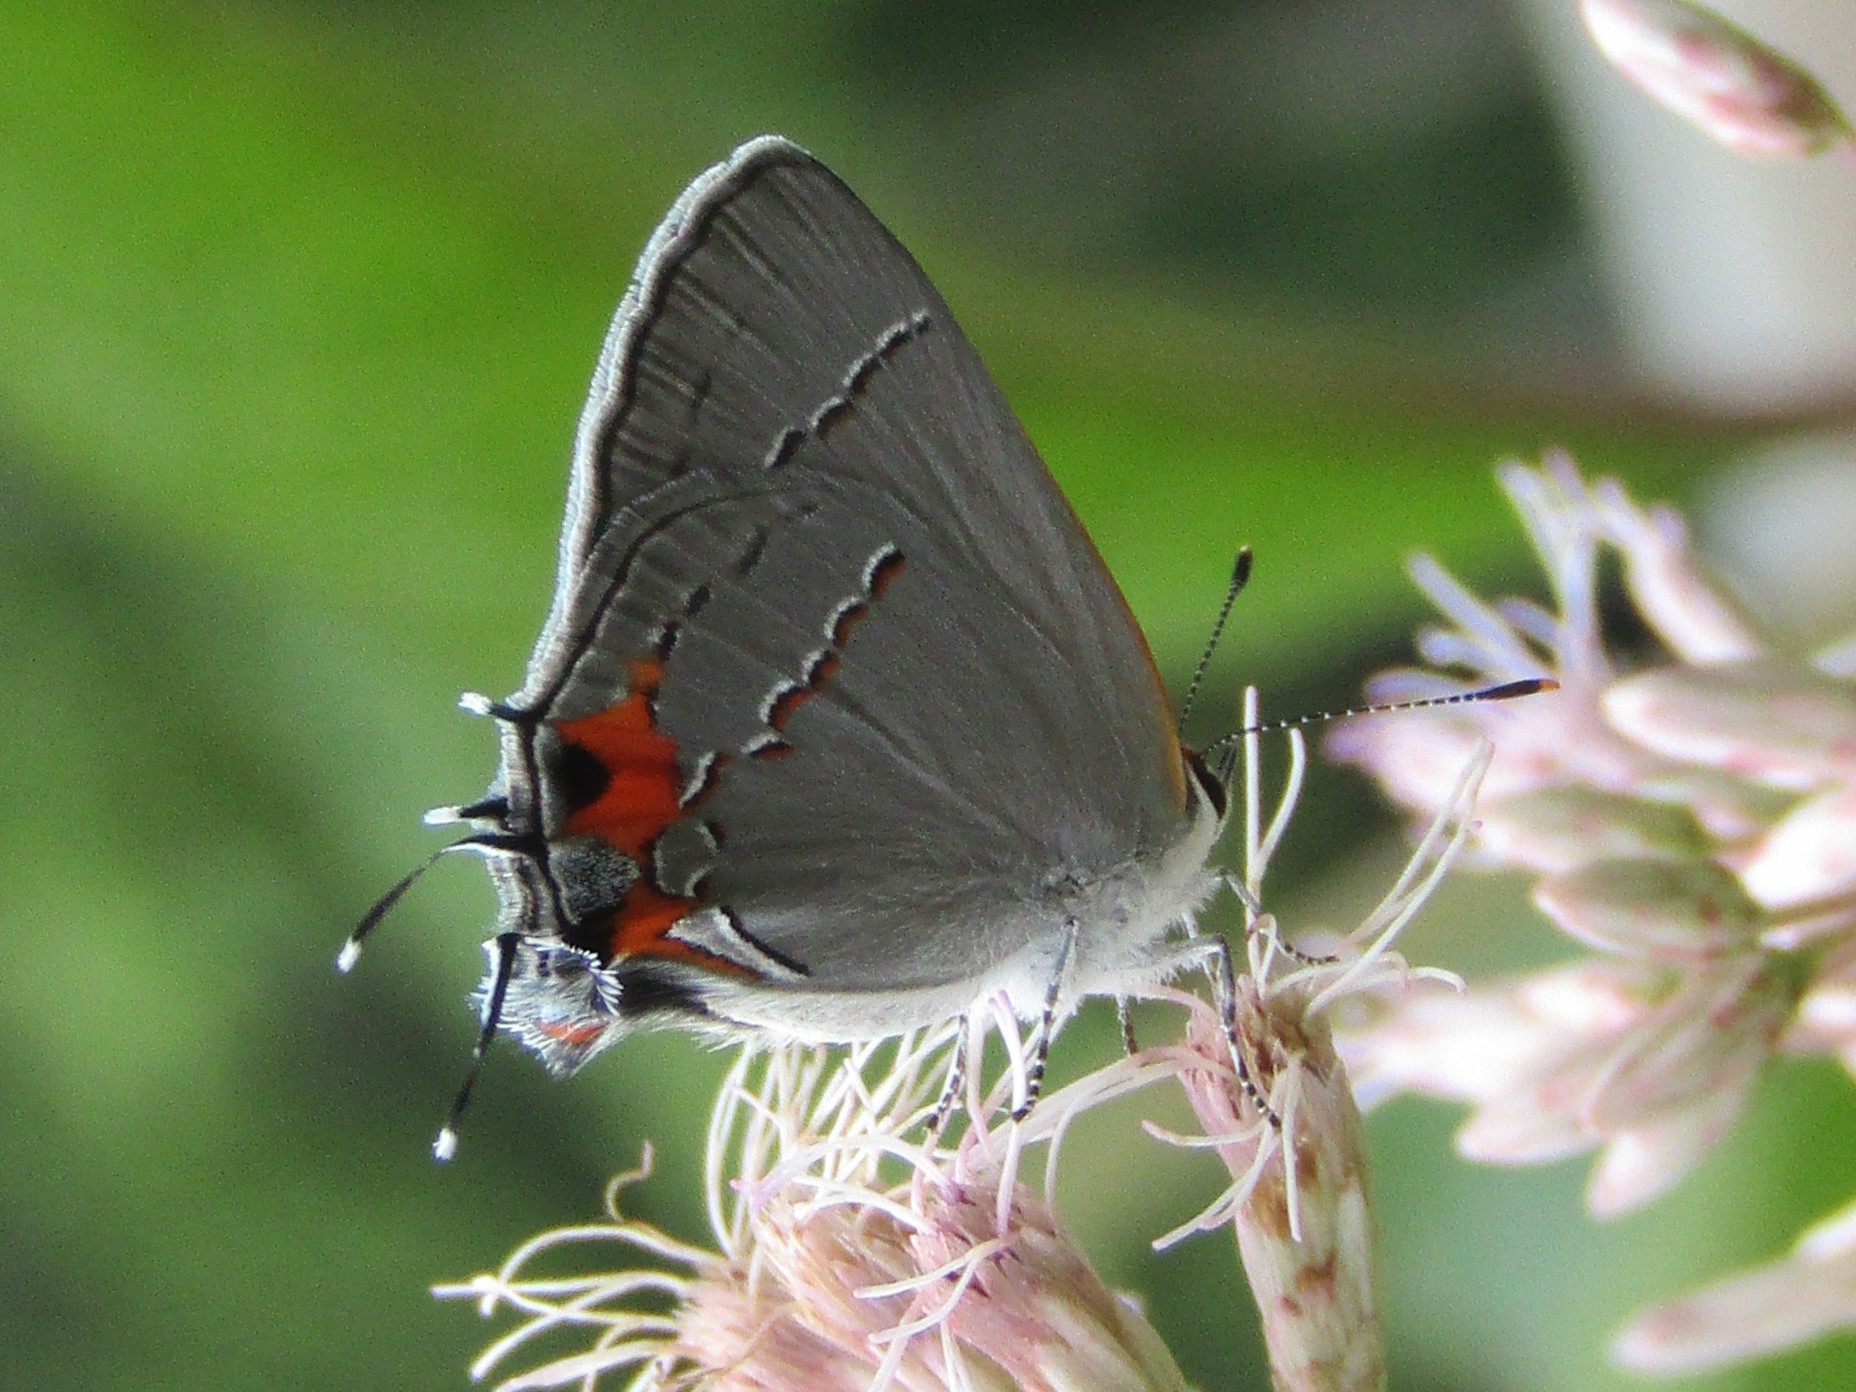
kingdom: Animalia
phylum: Arthropoda
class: Insecta
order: Lepidoptera
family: Lycaenidae
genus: Strymon
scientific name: Strymon melinus
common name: Gray hairstreak
